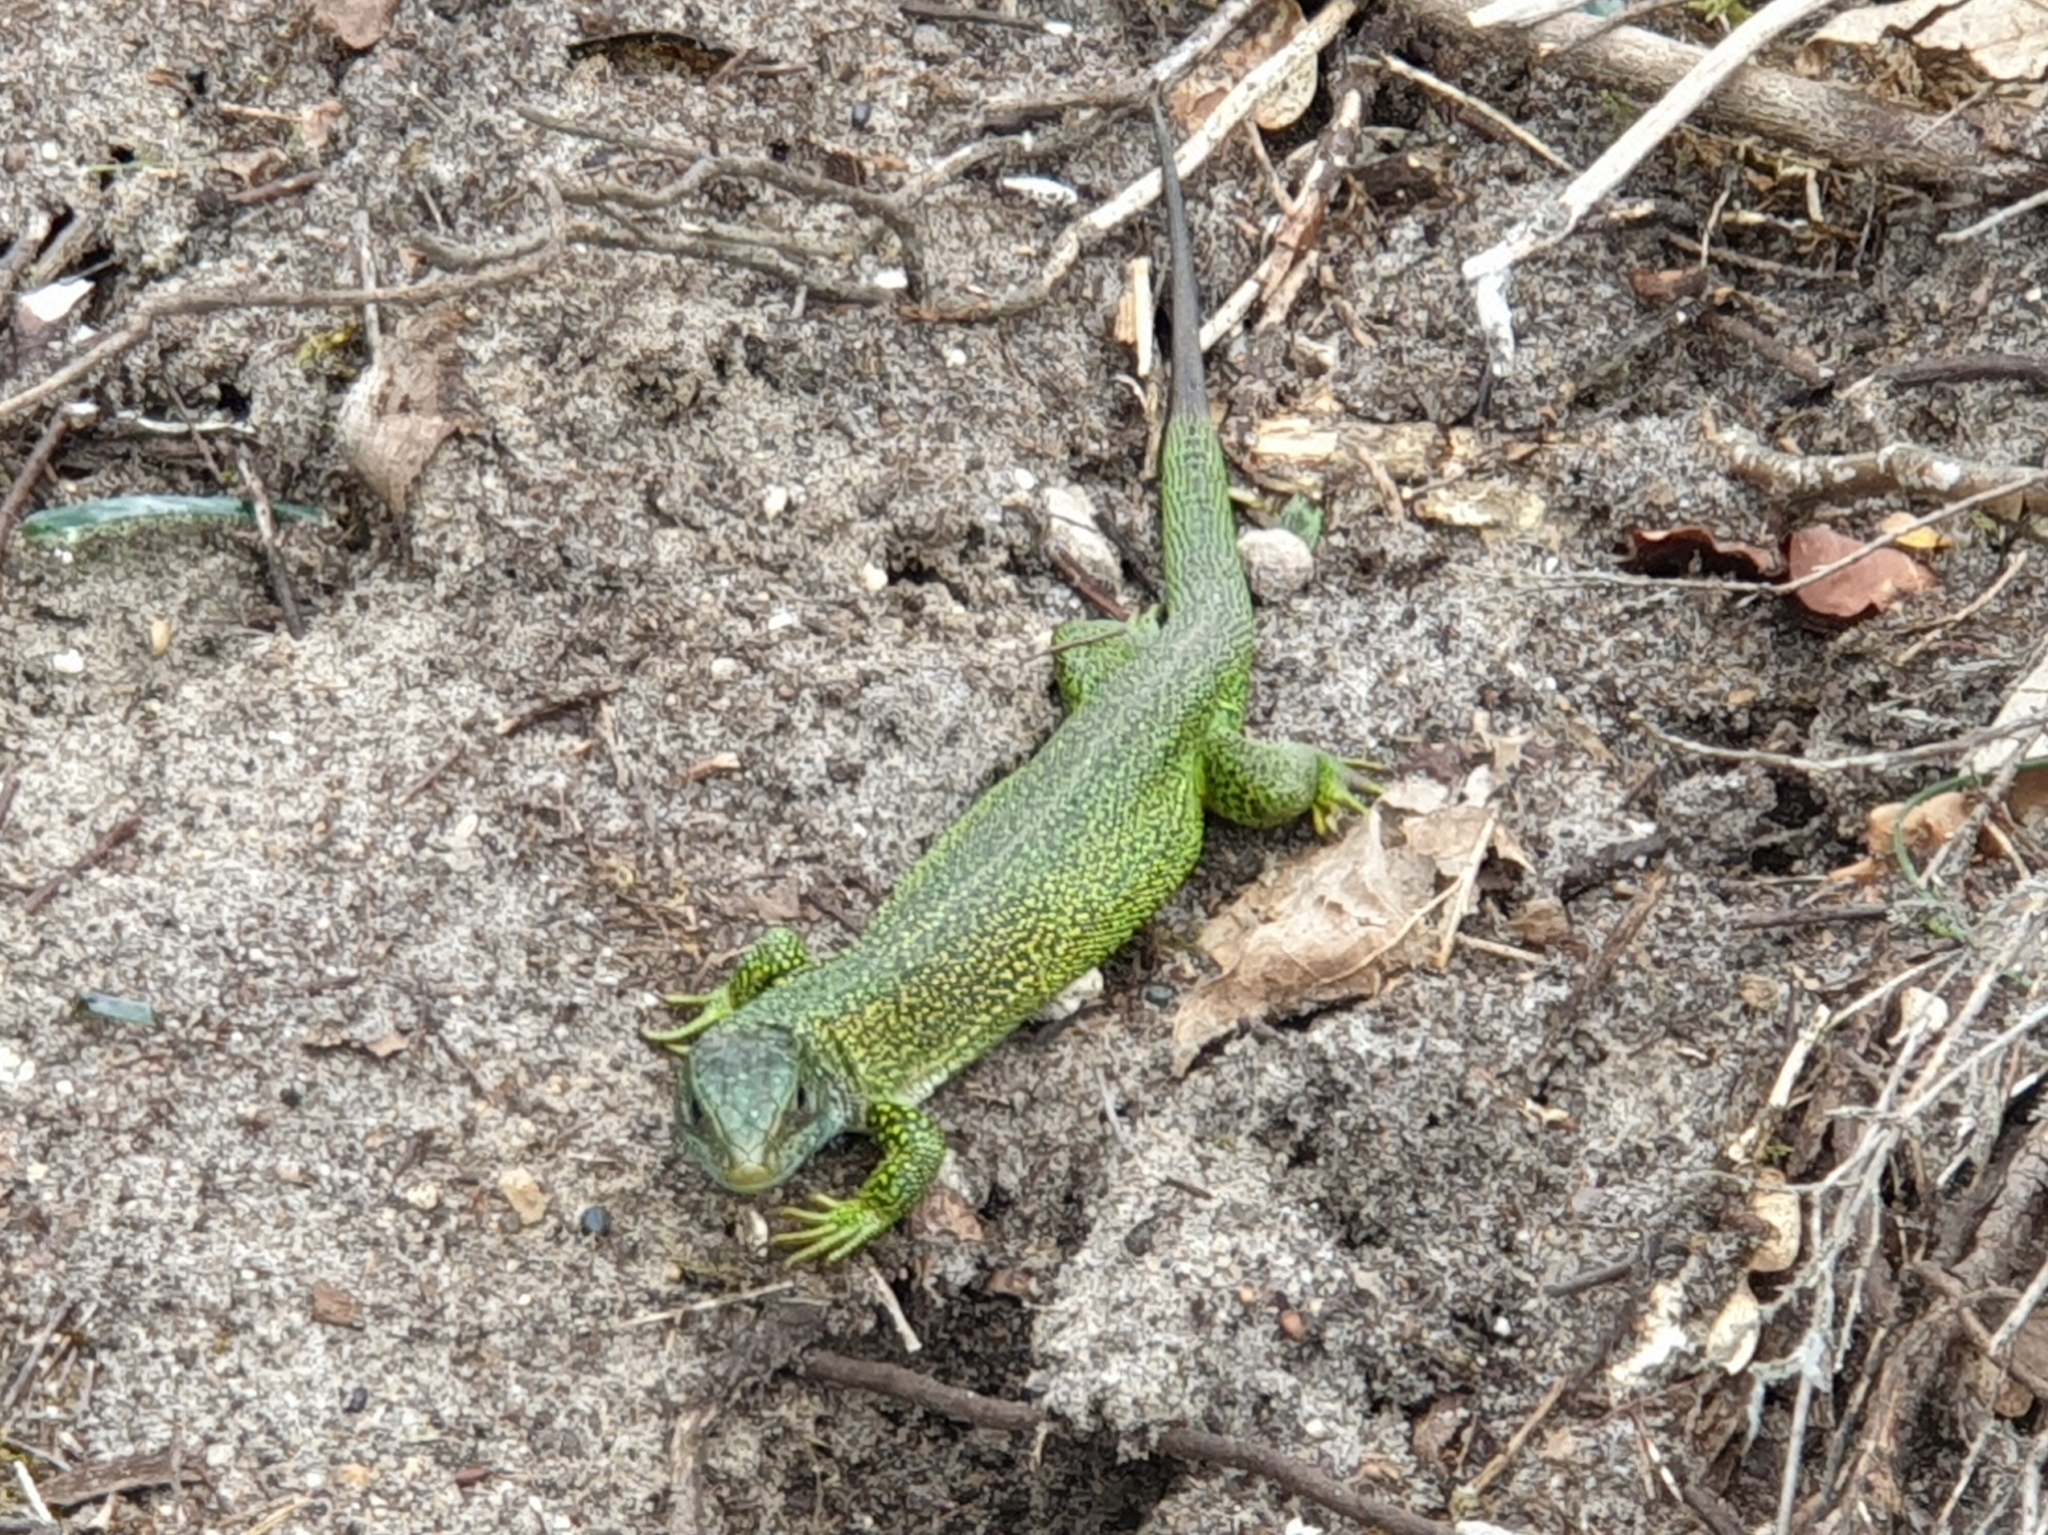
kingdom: Animalia
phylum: Chordata
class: Squamata
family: Lacertidae
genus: Lacerta
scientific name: Lacerta bilineata
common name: Western green lizard
